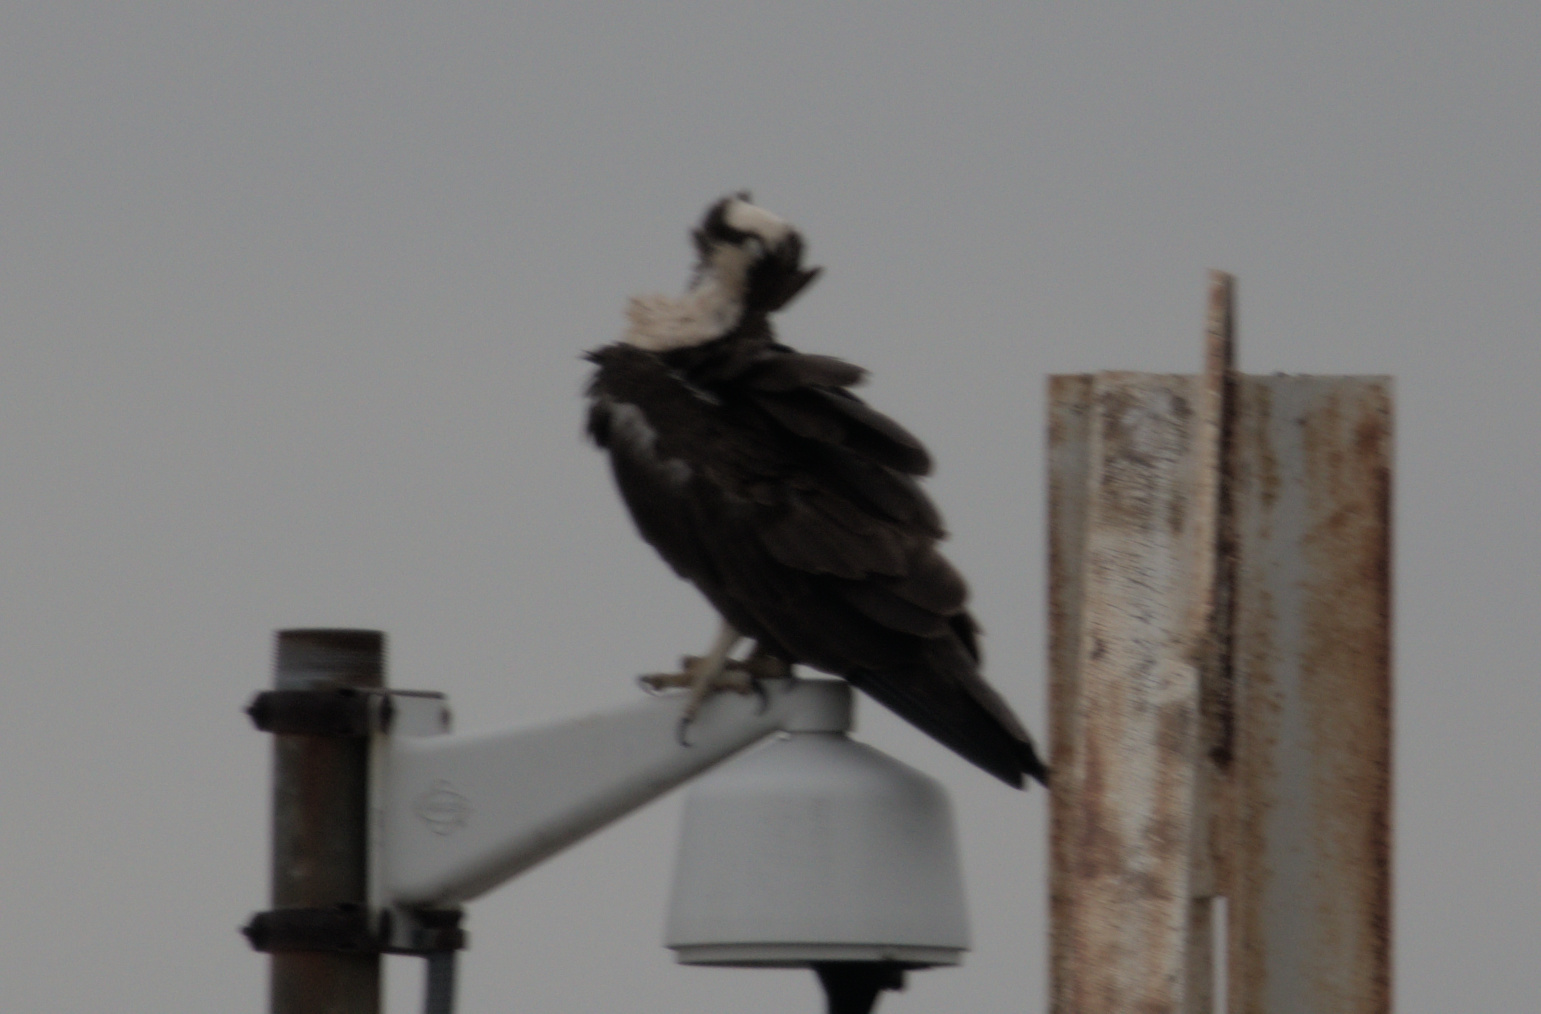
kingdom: Animalia
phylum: Chordata
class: Aves
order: Accipitriformes
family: Pandionidae
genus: Pandion
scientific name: Pandion haliaetus
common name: Osprey
